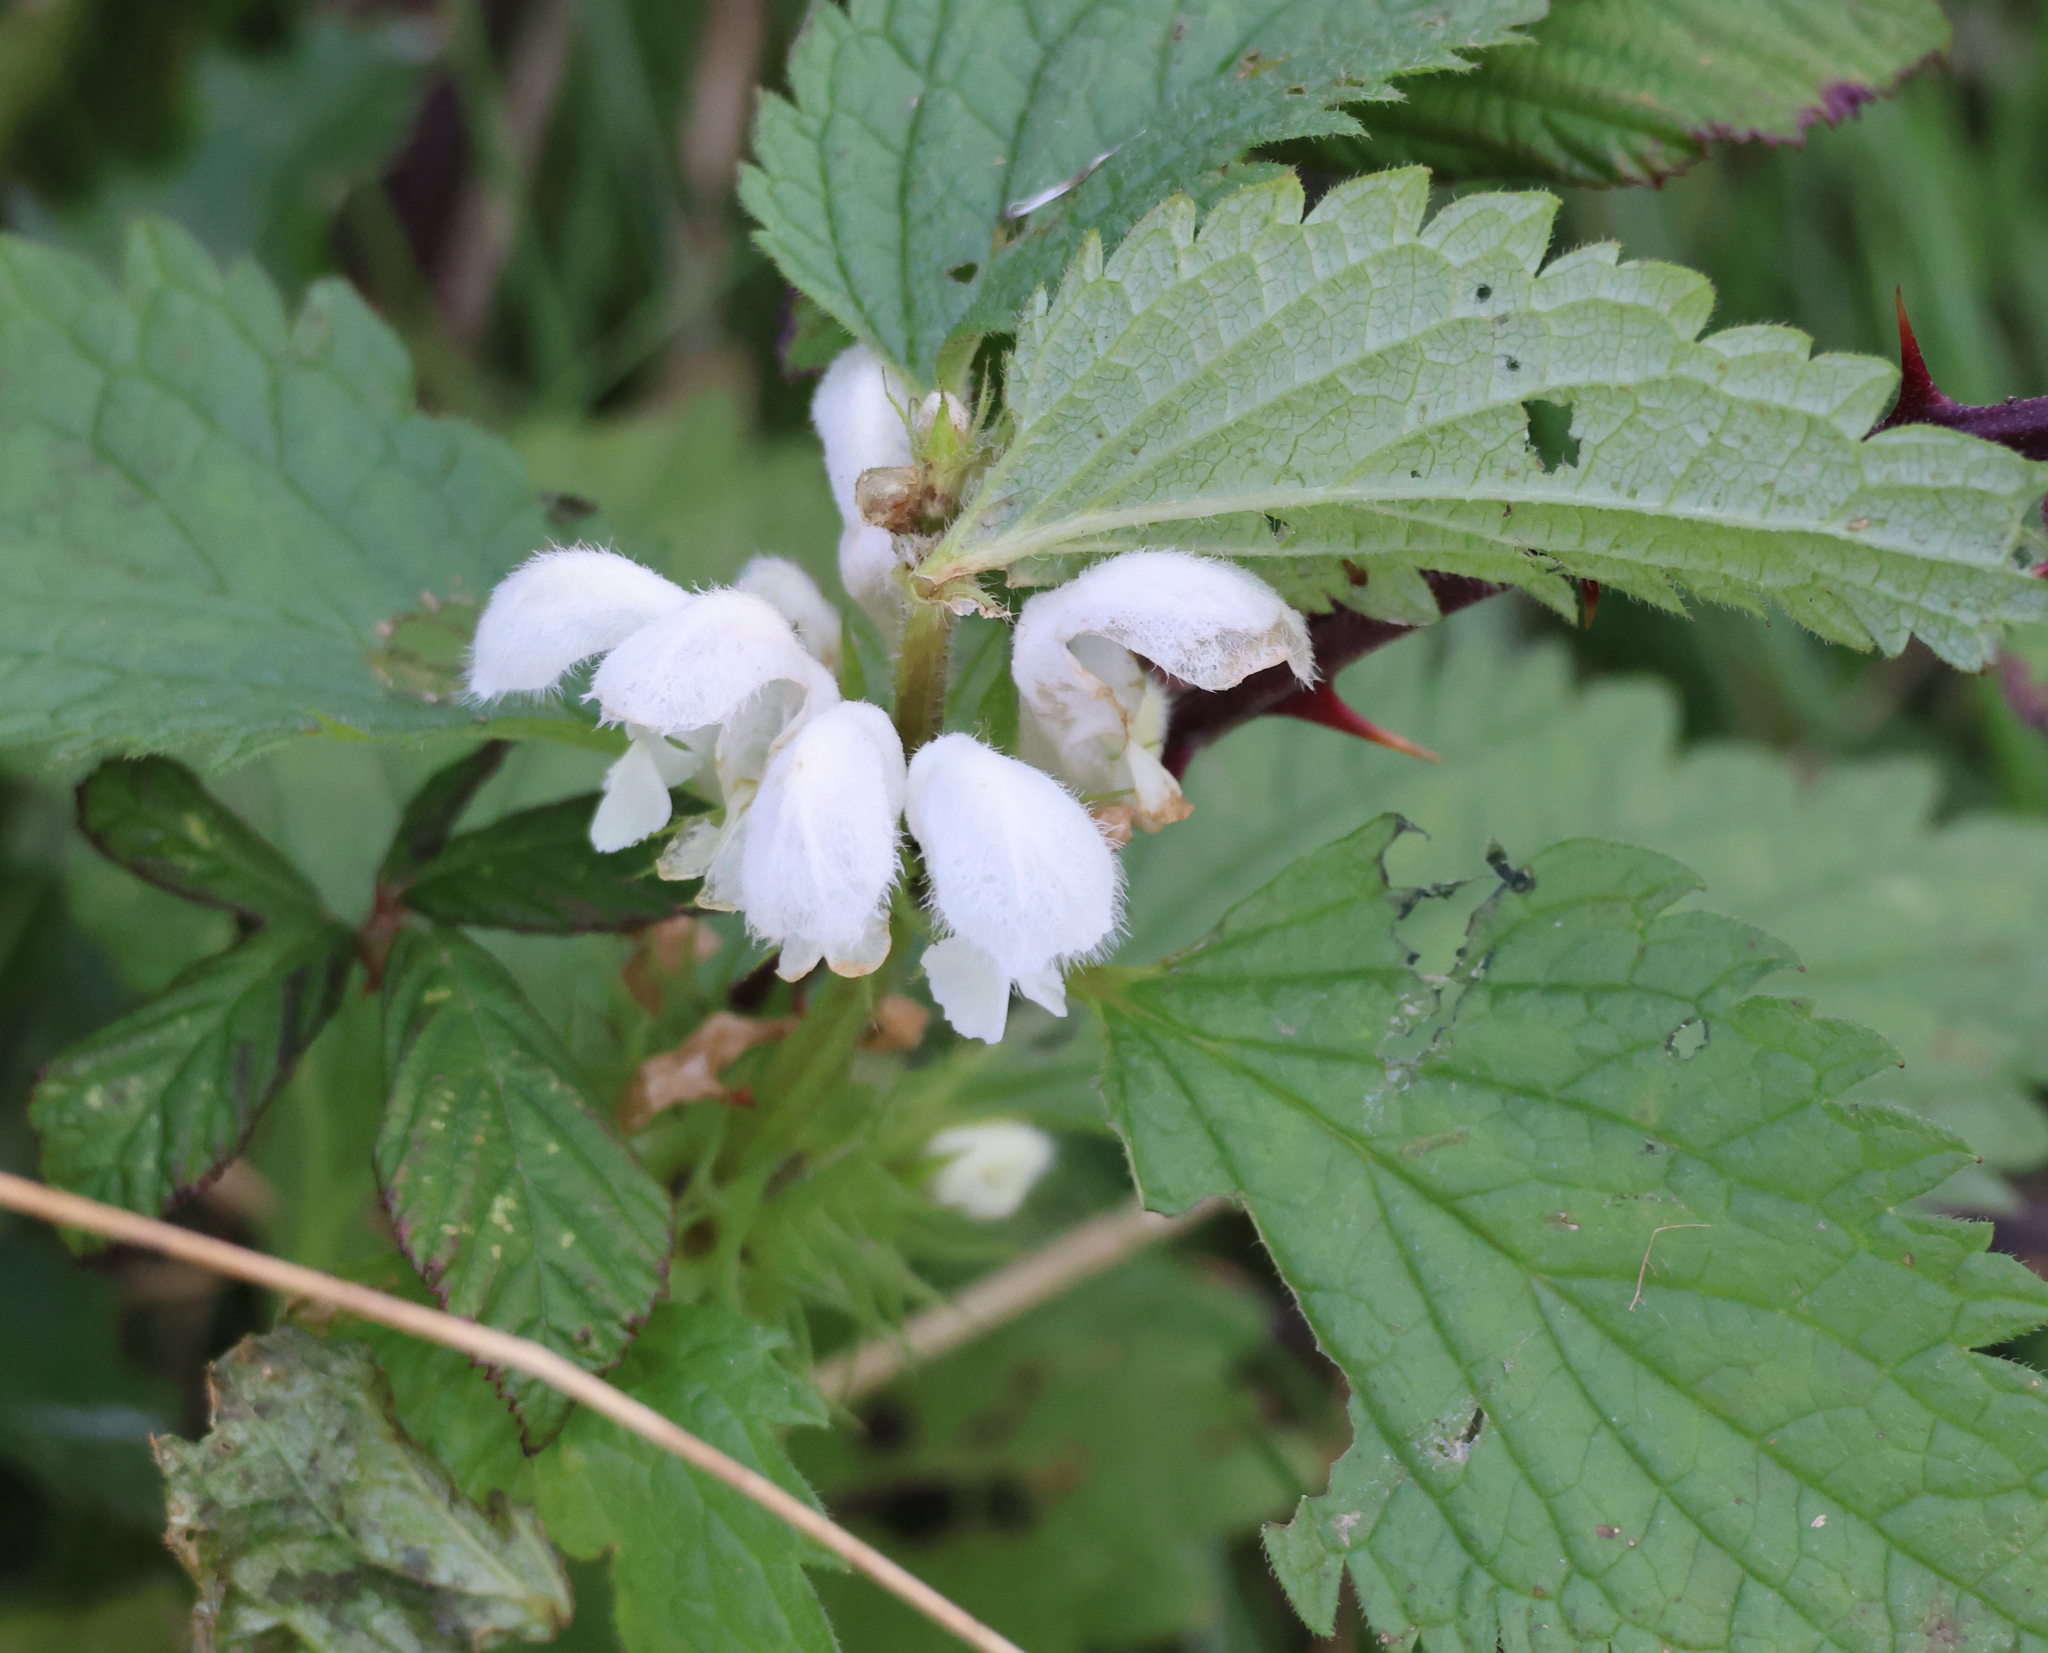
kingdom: Plantae
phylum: Tracheophyta
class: Magnoliopsida
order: Lamiales
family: Lamiaceae
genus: Lamium
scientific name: Lamium album
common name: White dead-nettle
